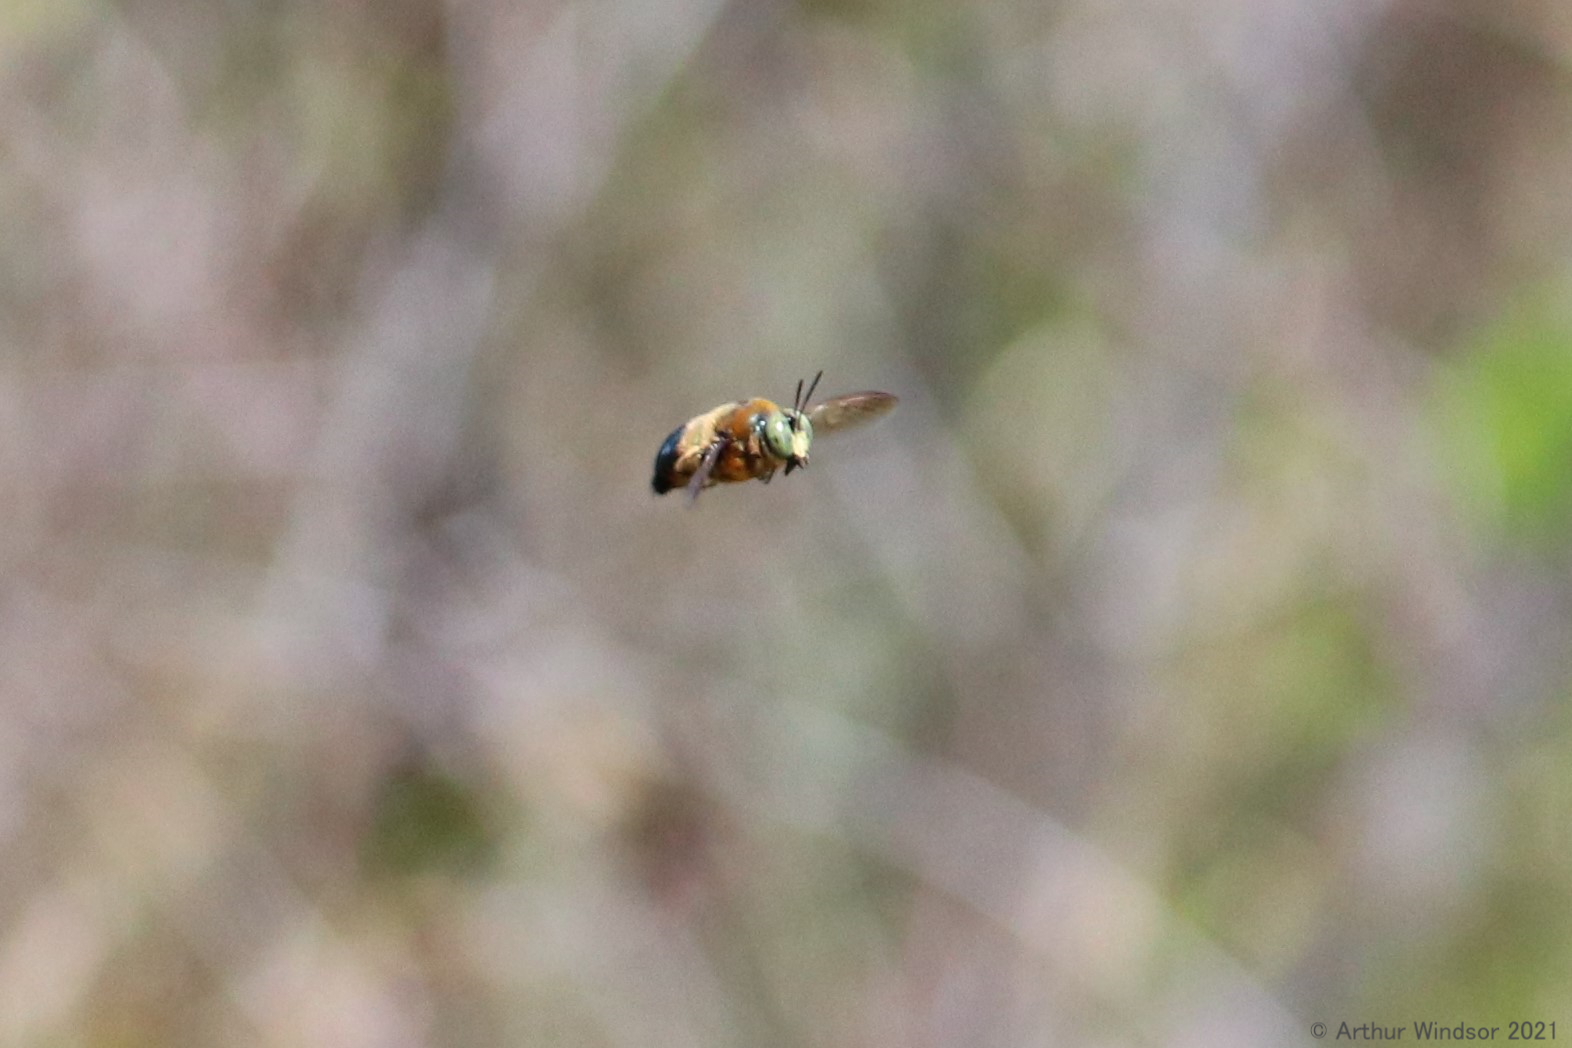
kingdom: Animalia
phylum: Arthropoda
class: Insecta
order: Hymenoptera
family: Apidae
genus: Xylocopa
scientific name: Xylocopa micans
